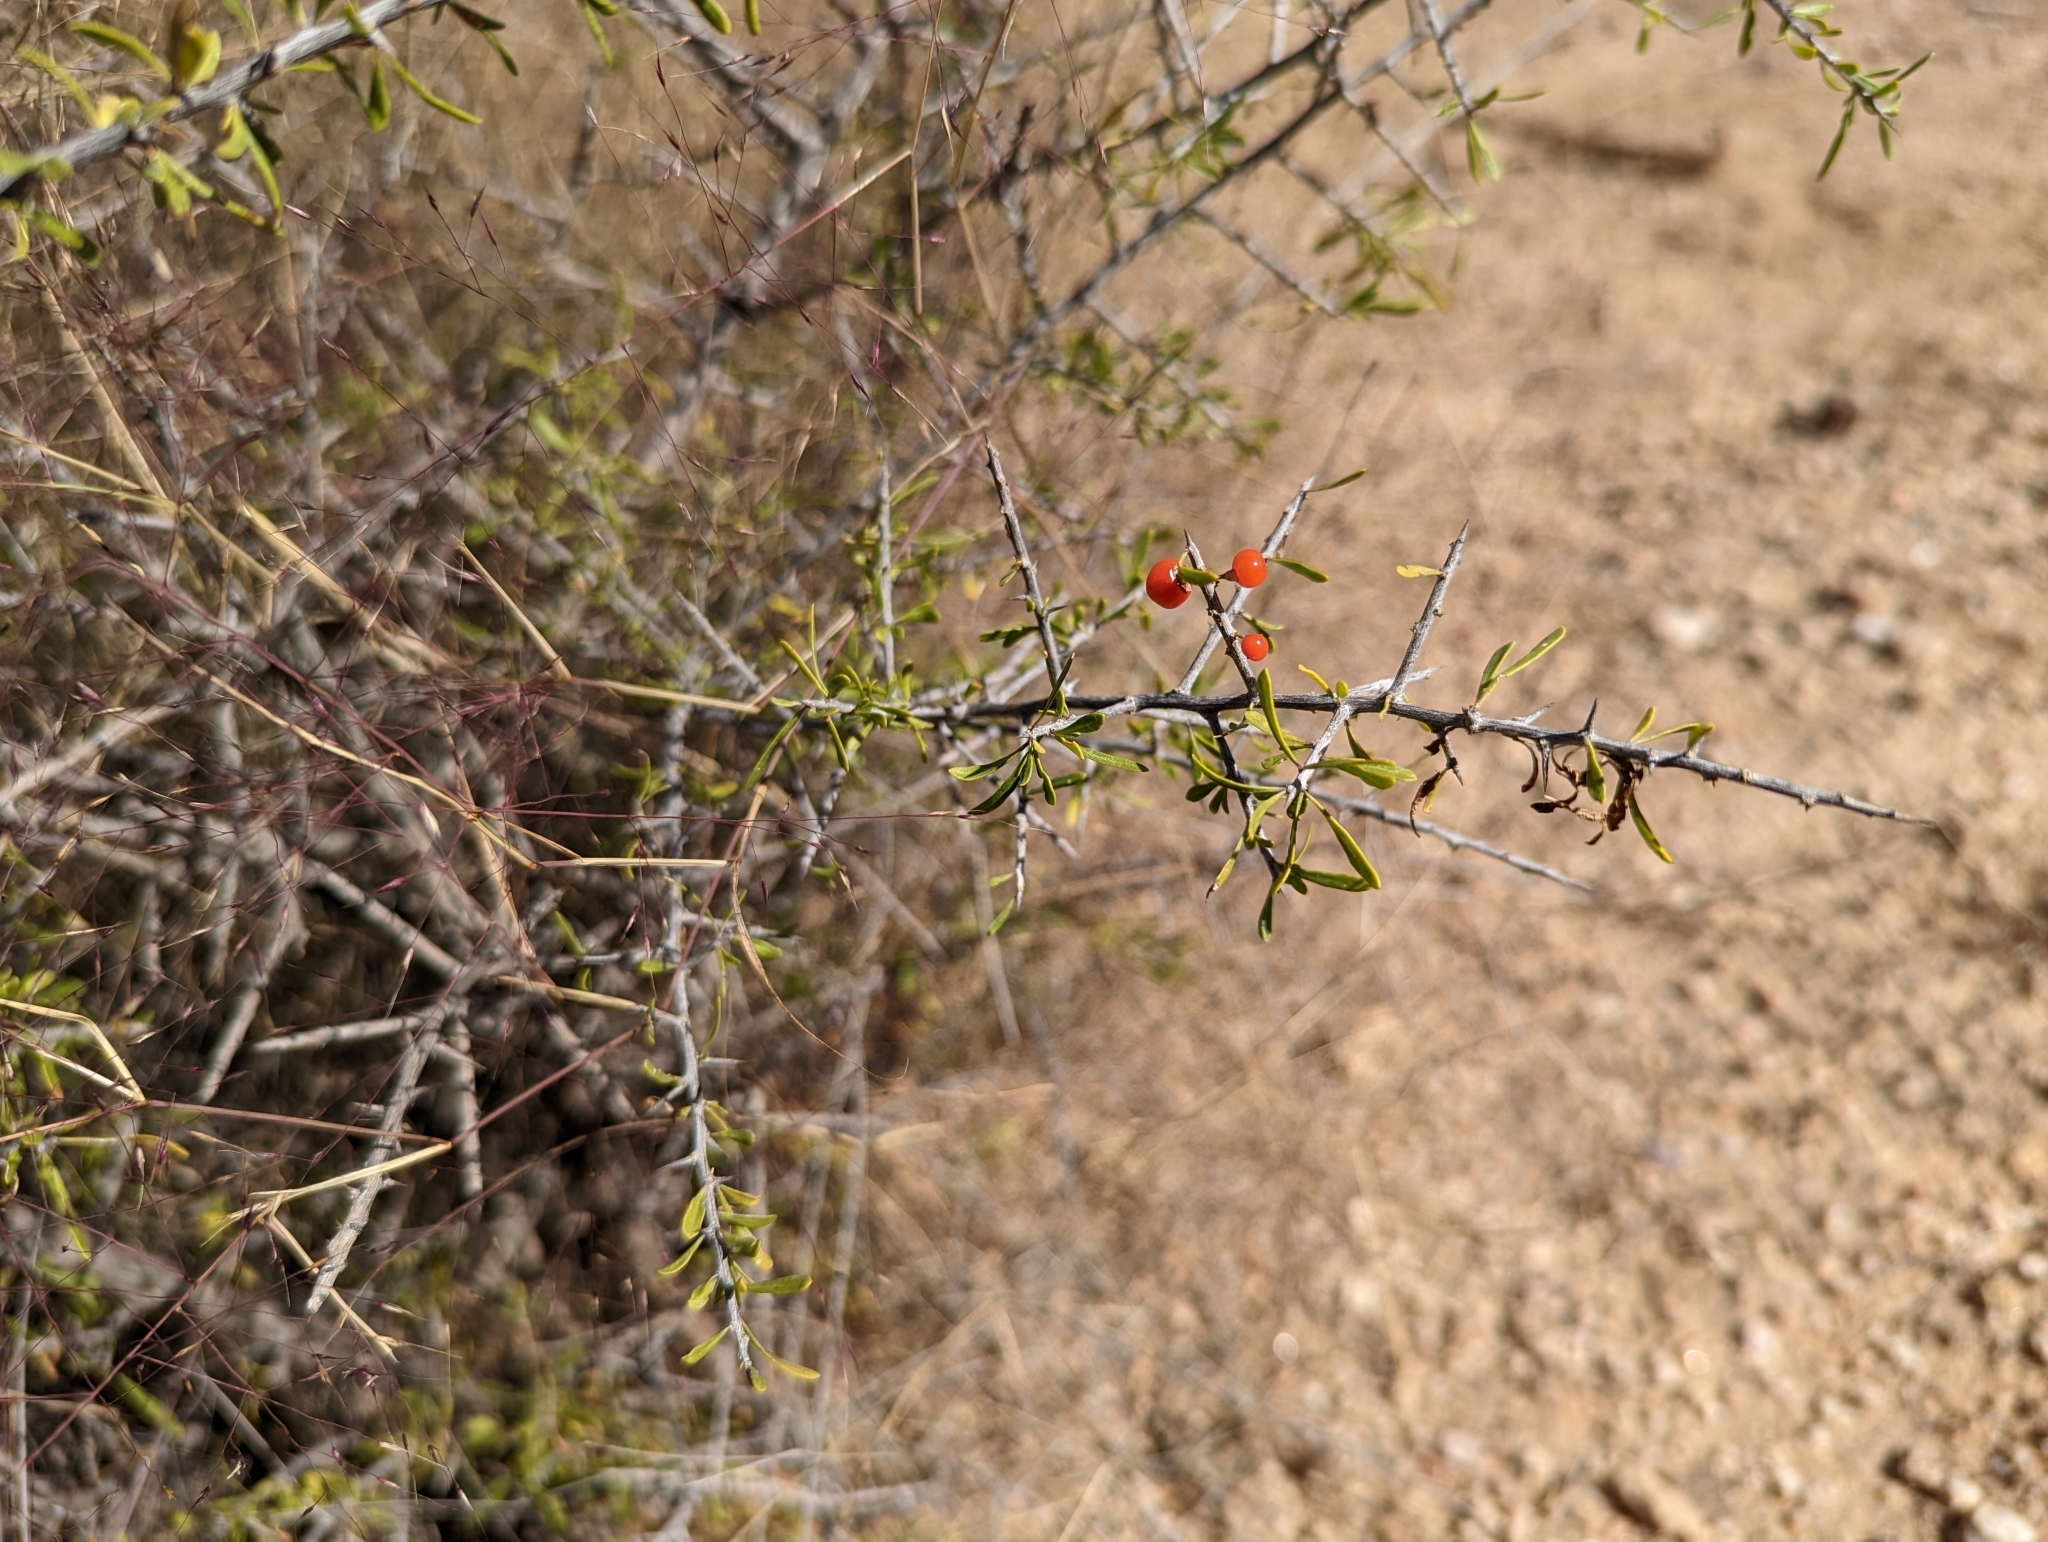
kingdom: Plantae
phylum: Tracheophyta
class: Magnoliopsida
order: Solanales
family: Solanaceae
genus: Lycium
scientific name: Lycium andersonii
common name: Water-jacket
